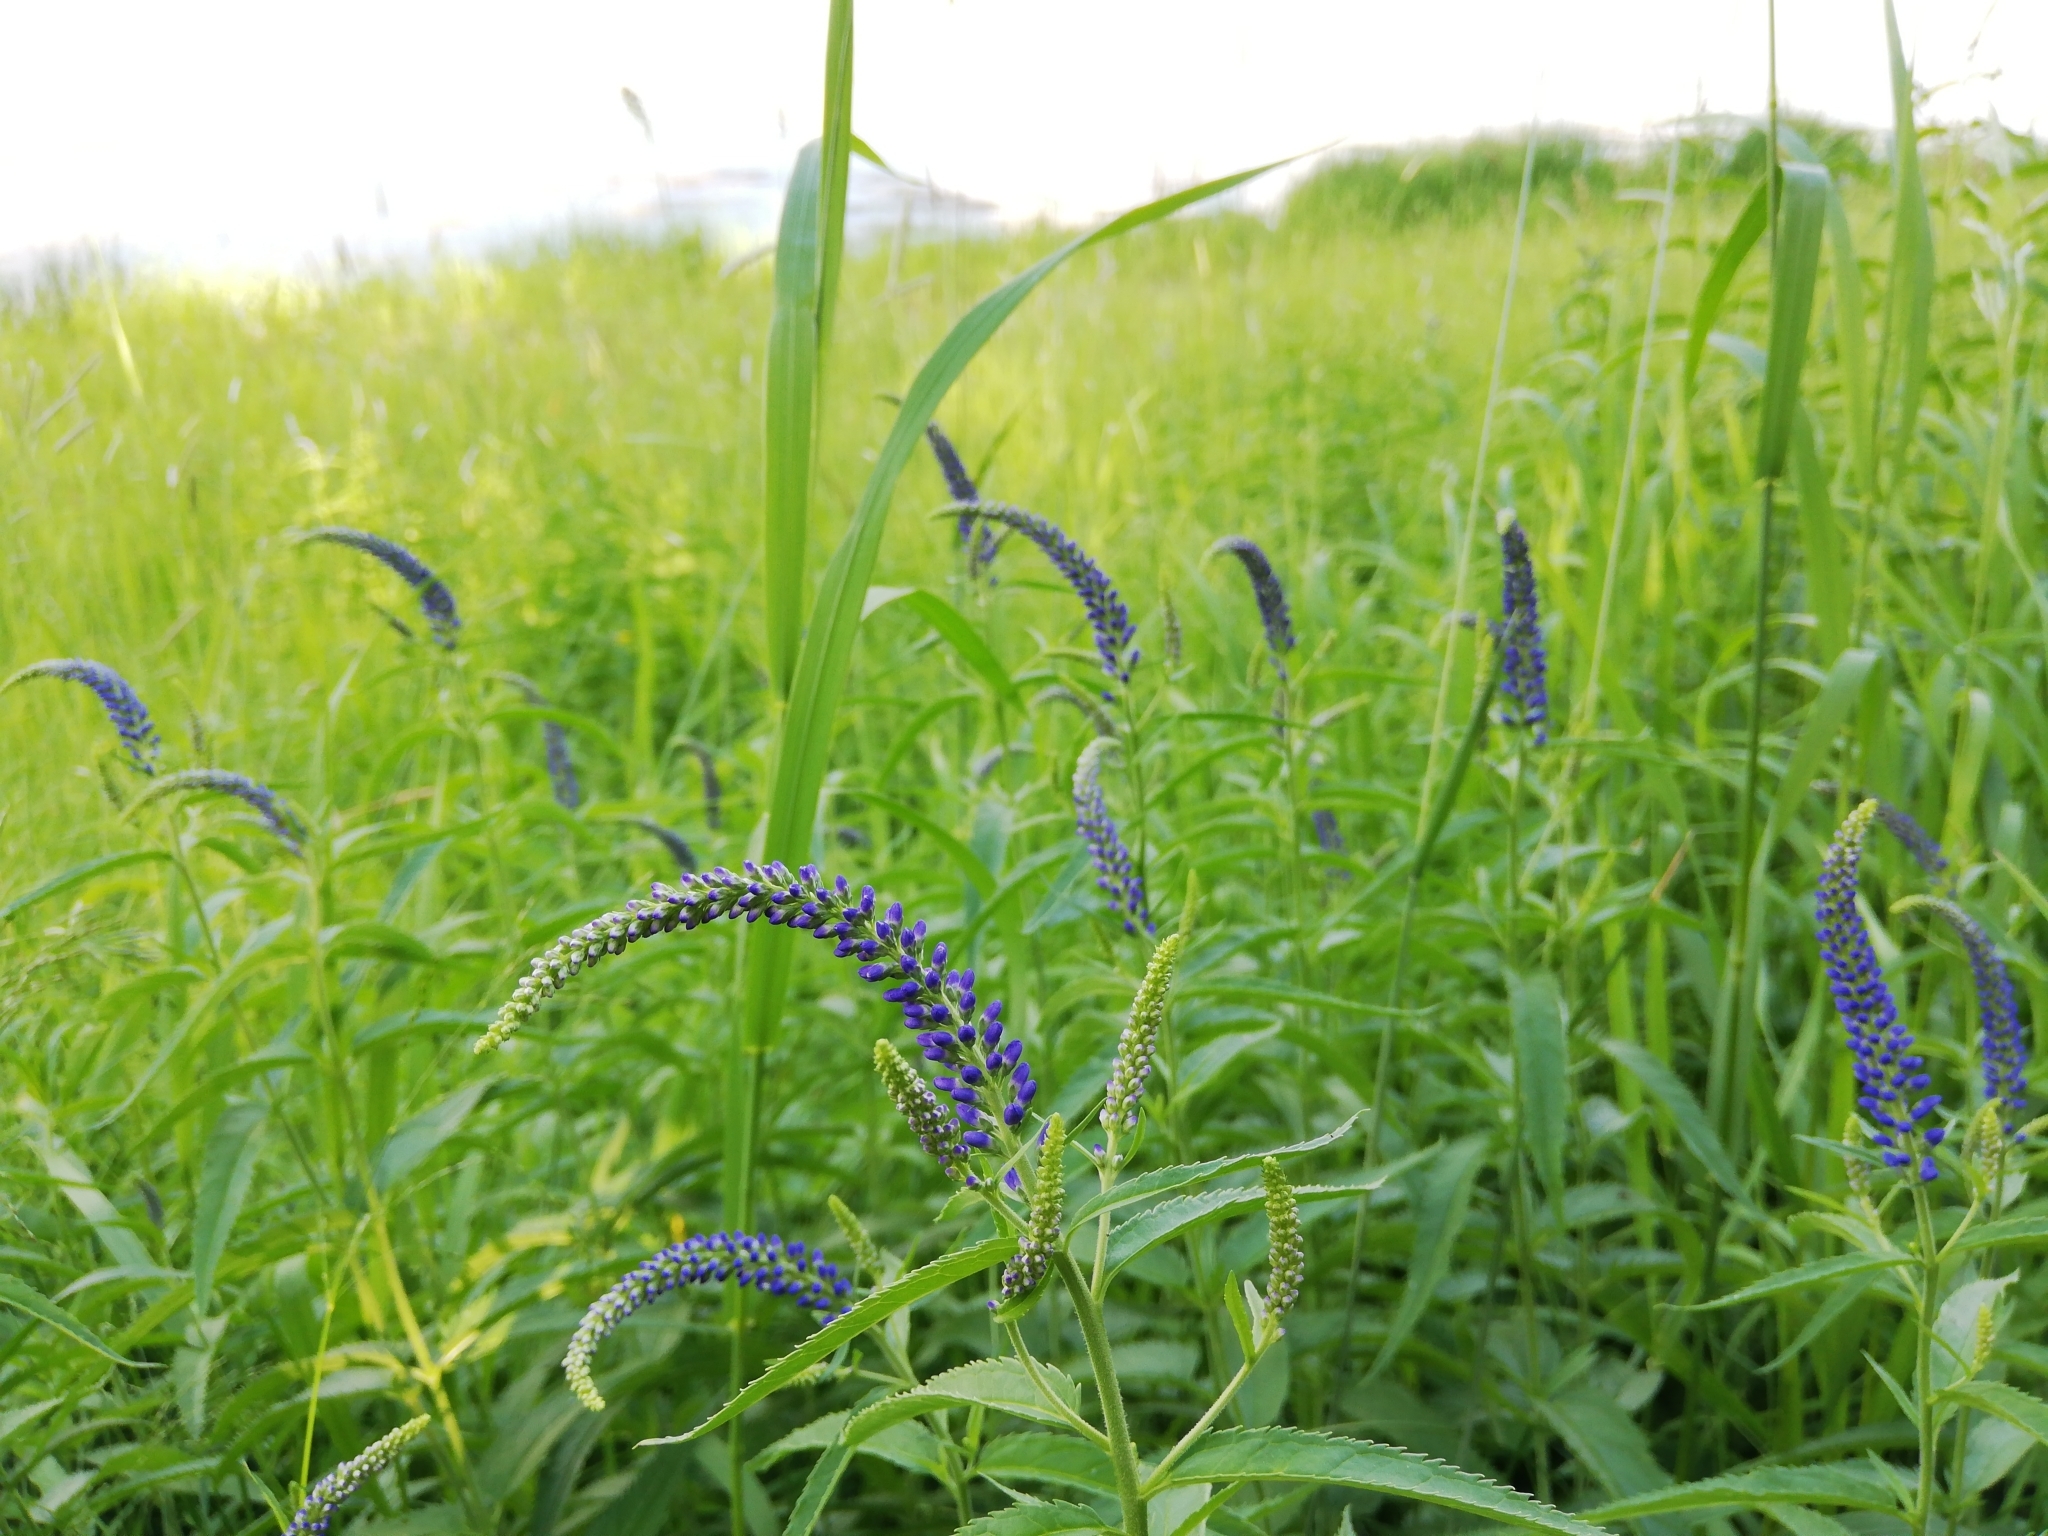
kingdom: Plantae
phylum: Tracheophyta
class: Magnoliopsida
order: Lamiales
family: Plantaginaceae
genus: Veronica
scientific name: Veronica longifolia
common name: Garden speedwell
